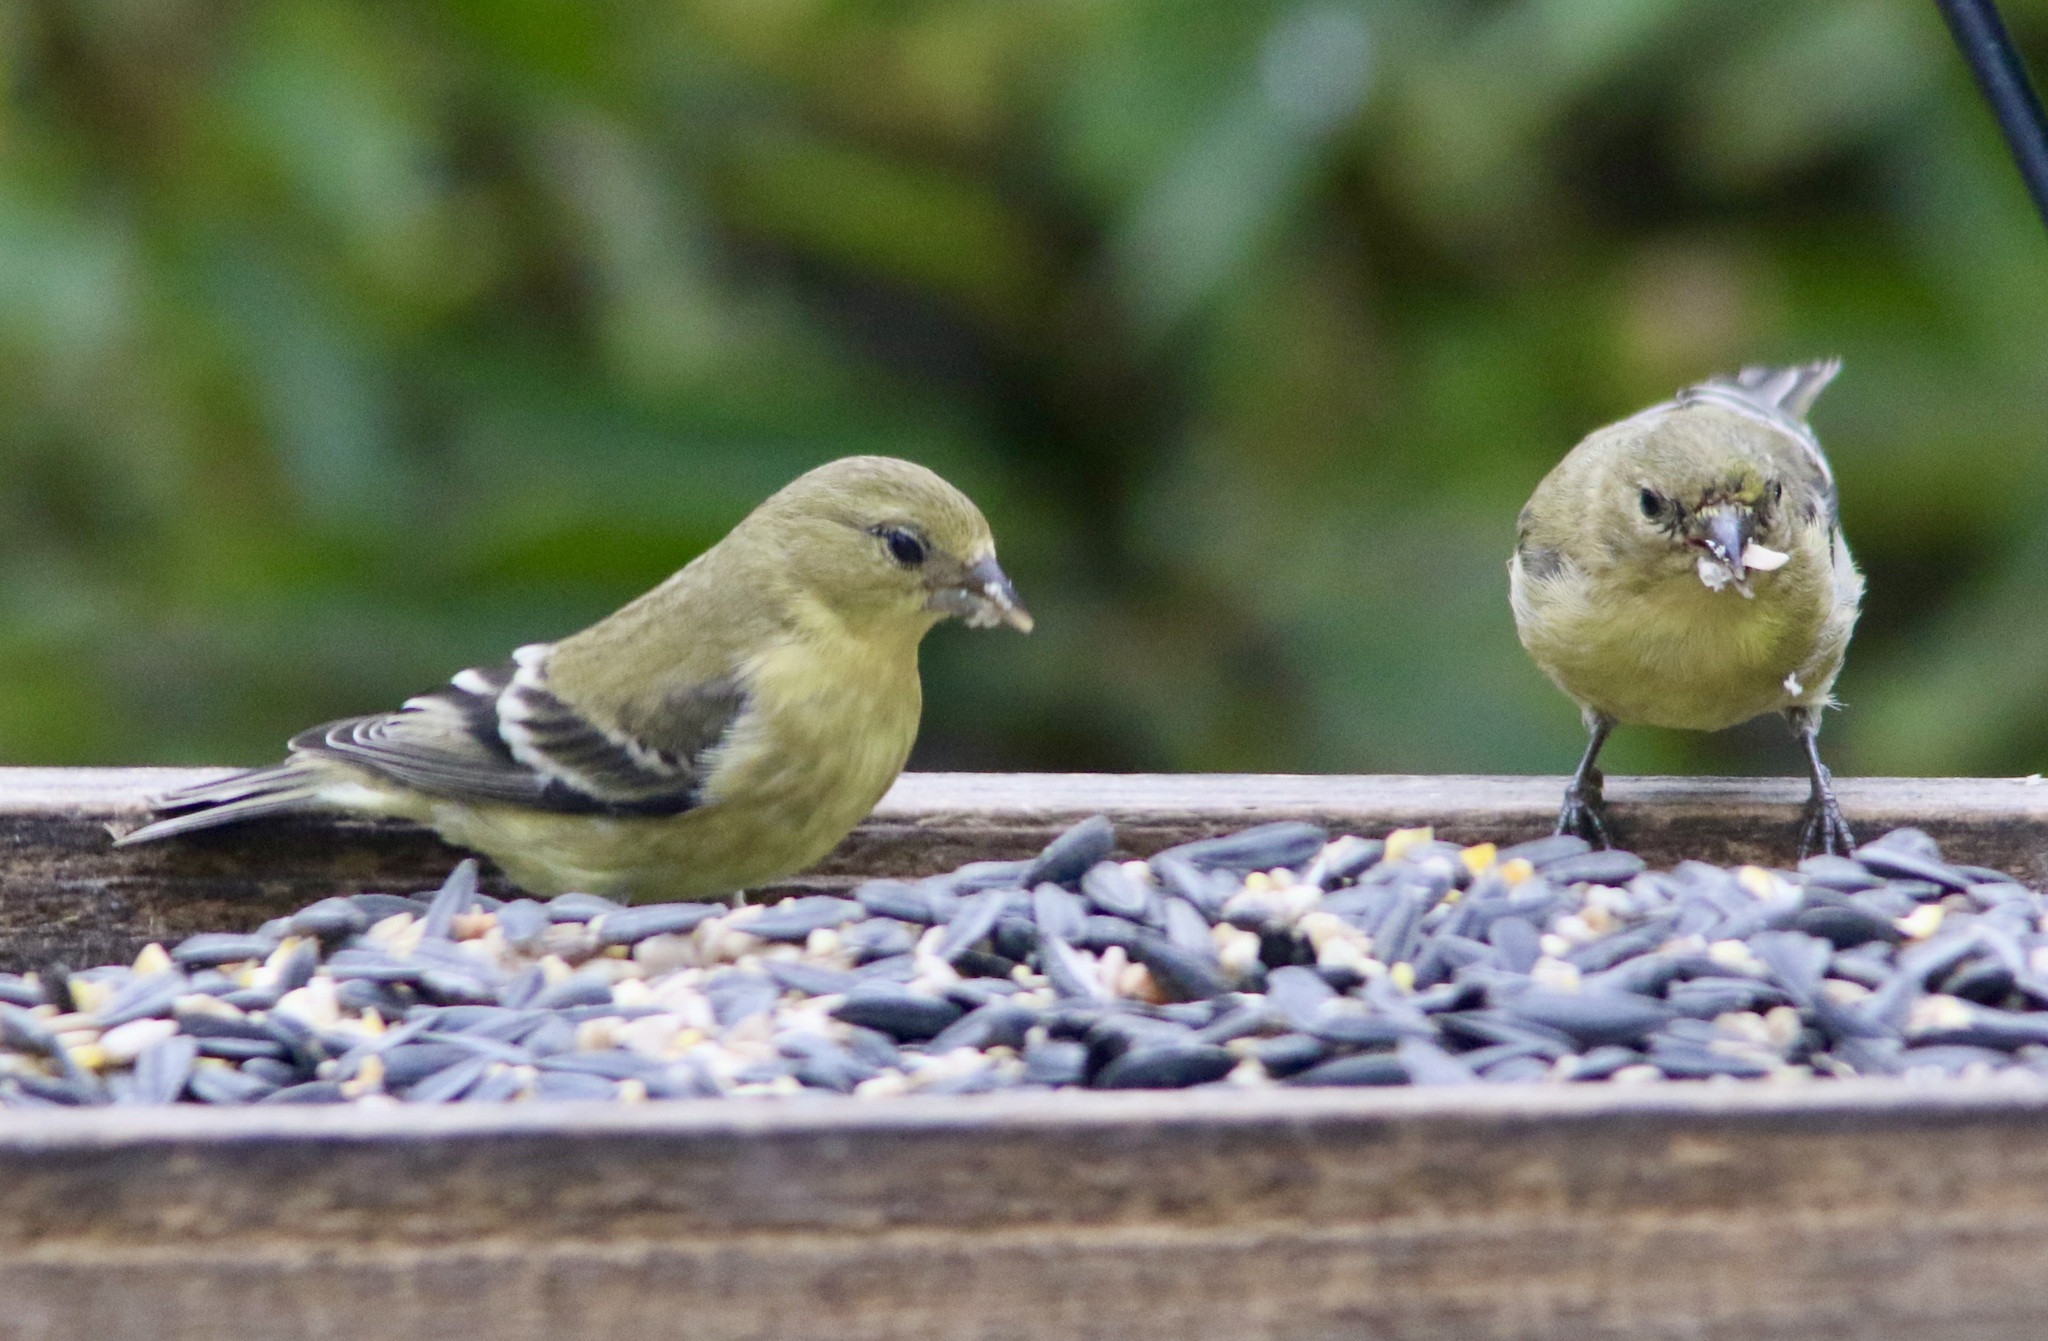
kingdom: Animalia
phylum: Chordata
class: Aves
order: Passeriformes
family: Fringillidae
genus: Spinus
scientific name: Spinus psaltria
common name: Lesser goldfinch
